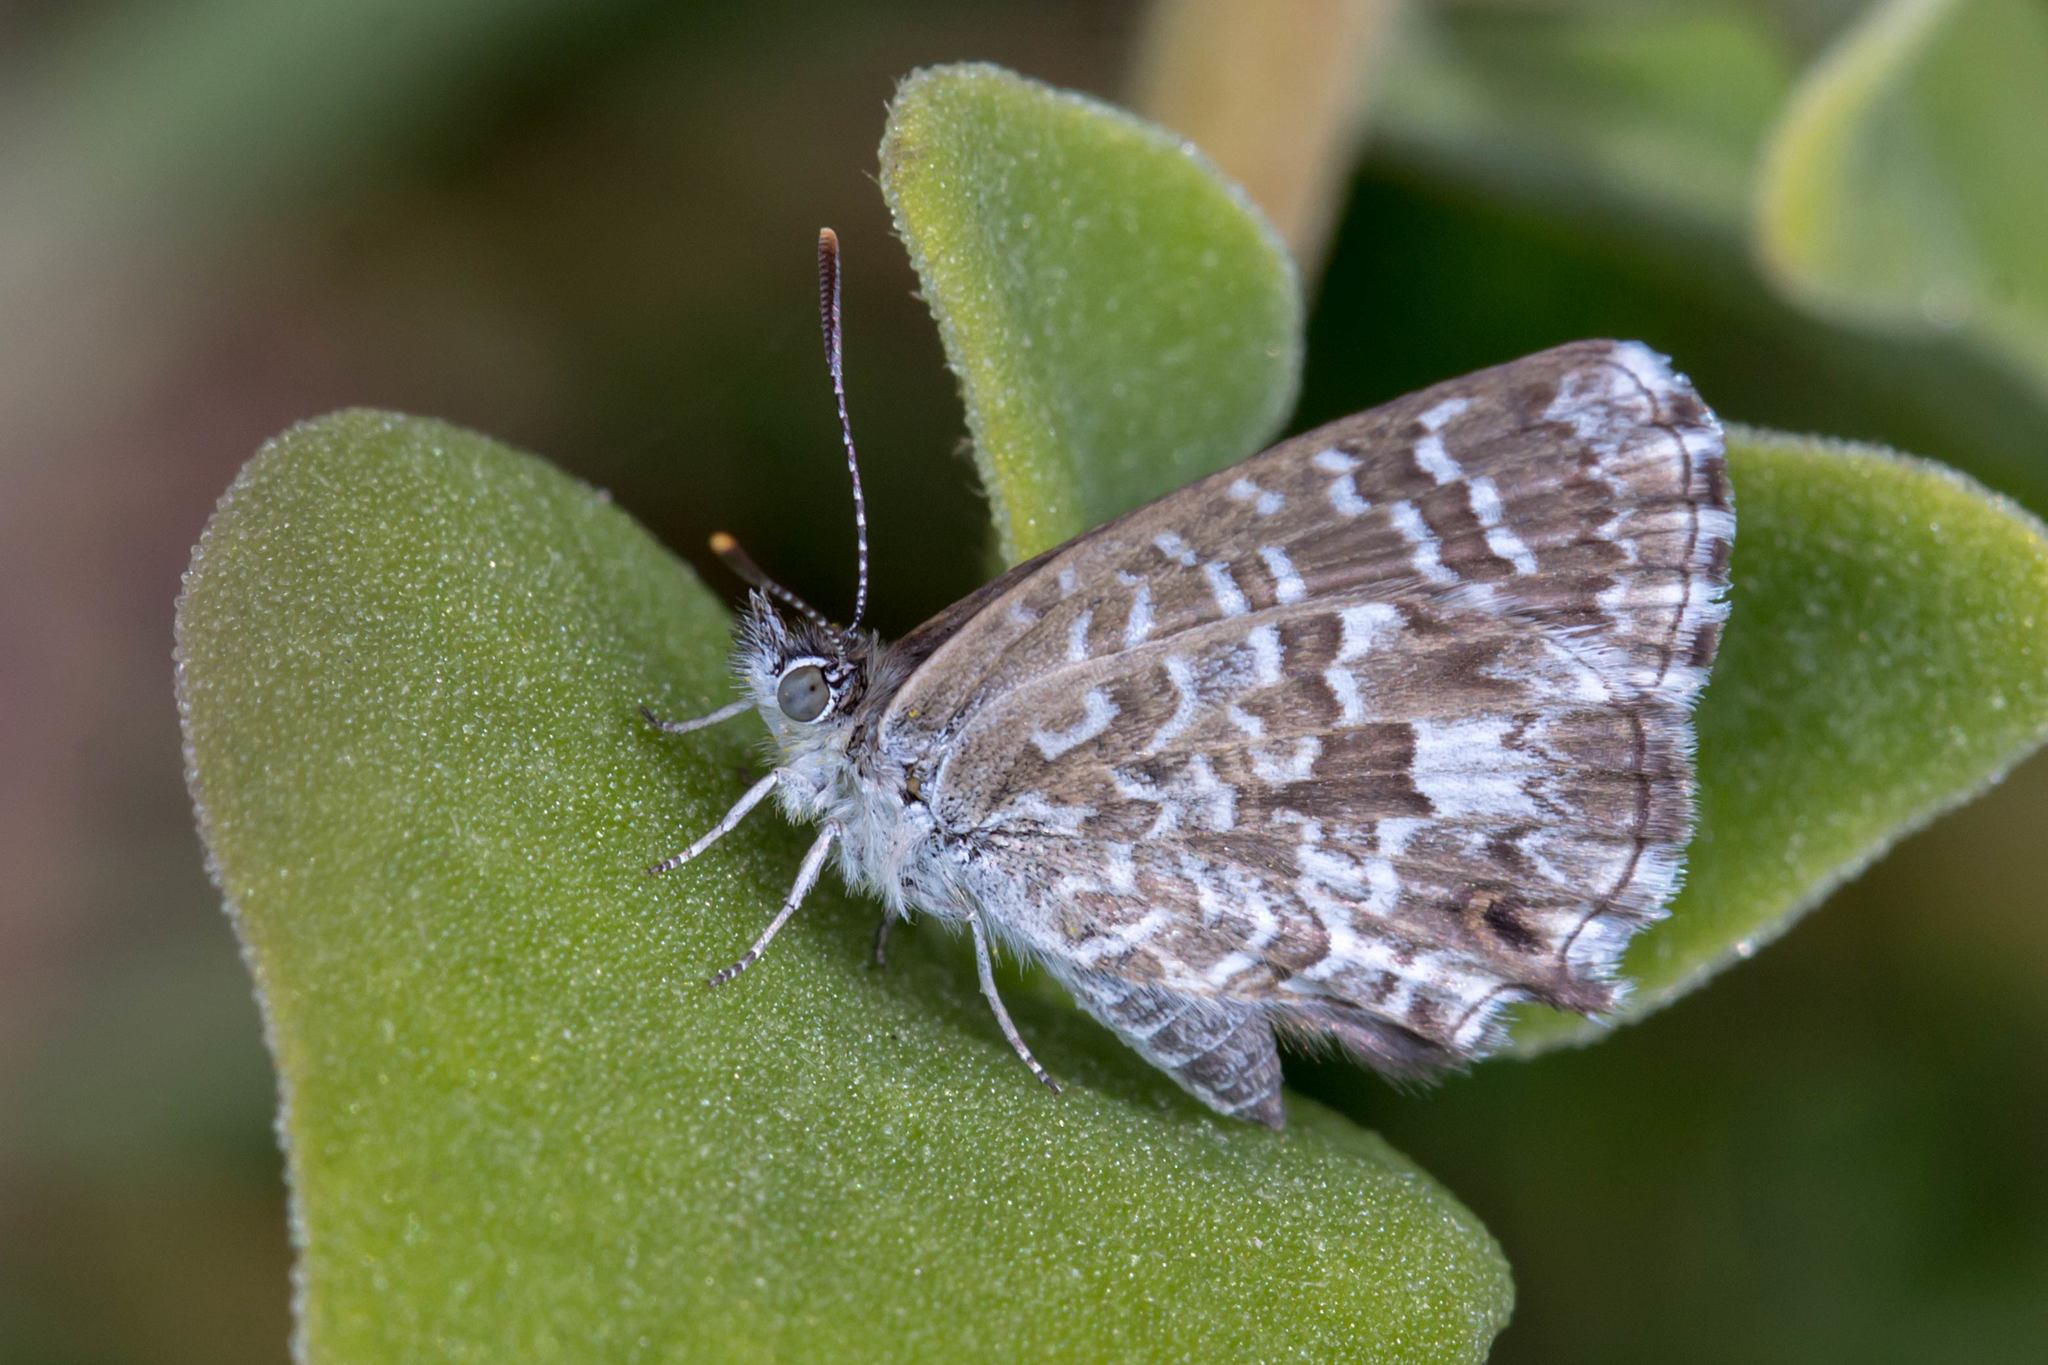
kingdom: Animalia
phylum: Arthropoda
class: Insecta
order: Lepidoptera
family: Lycaenidae
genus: Theclinesthes
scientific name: Theclinesthes serpentata
